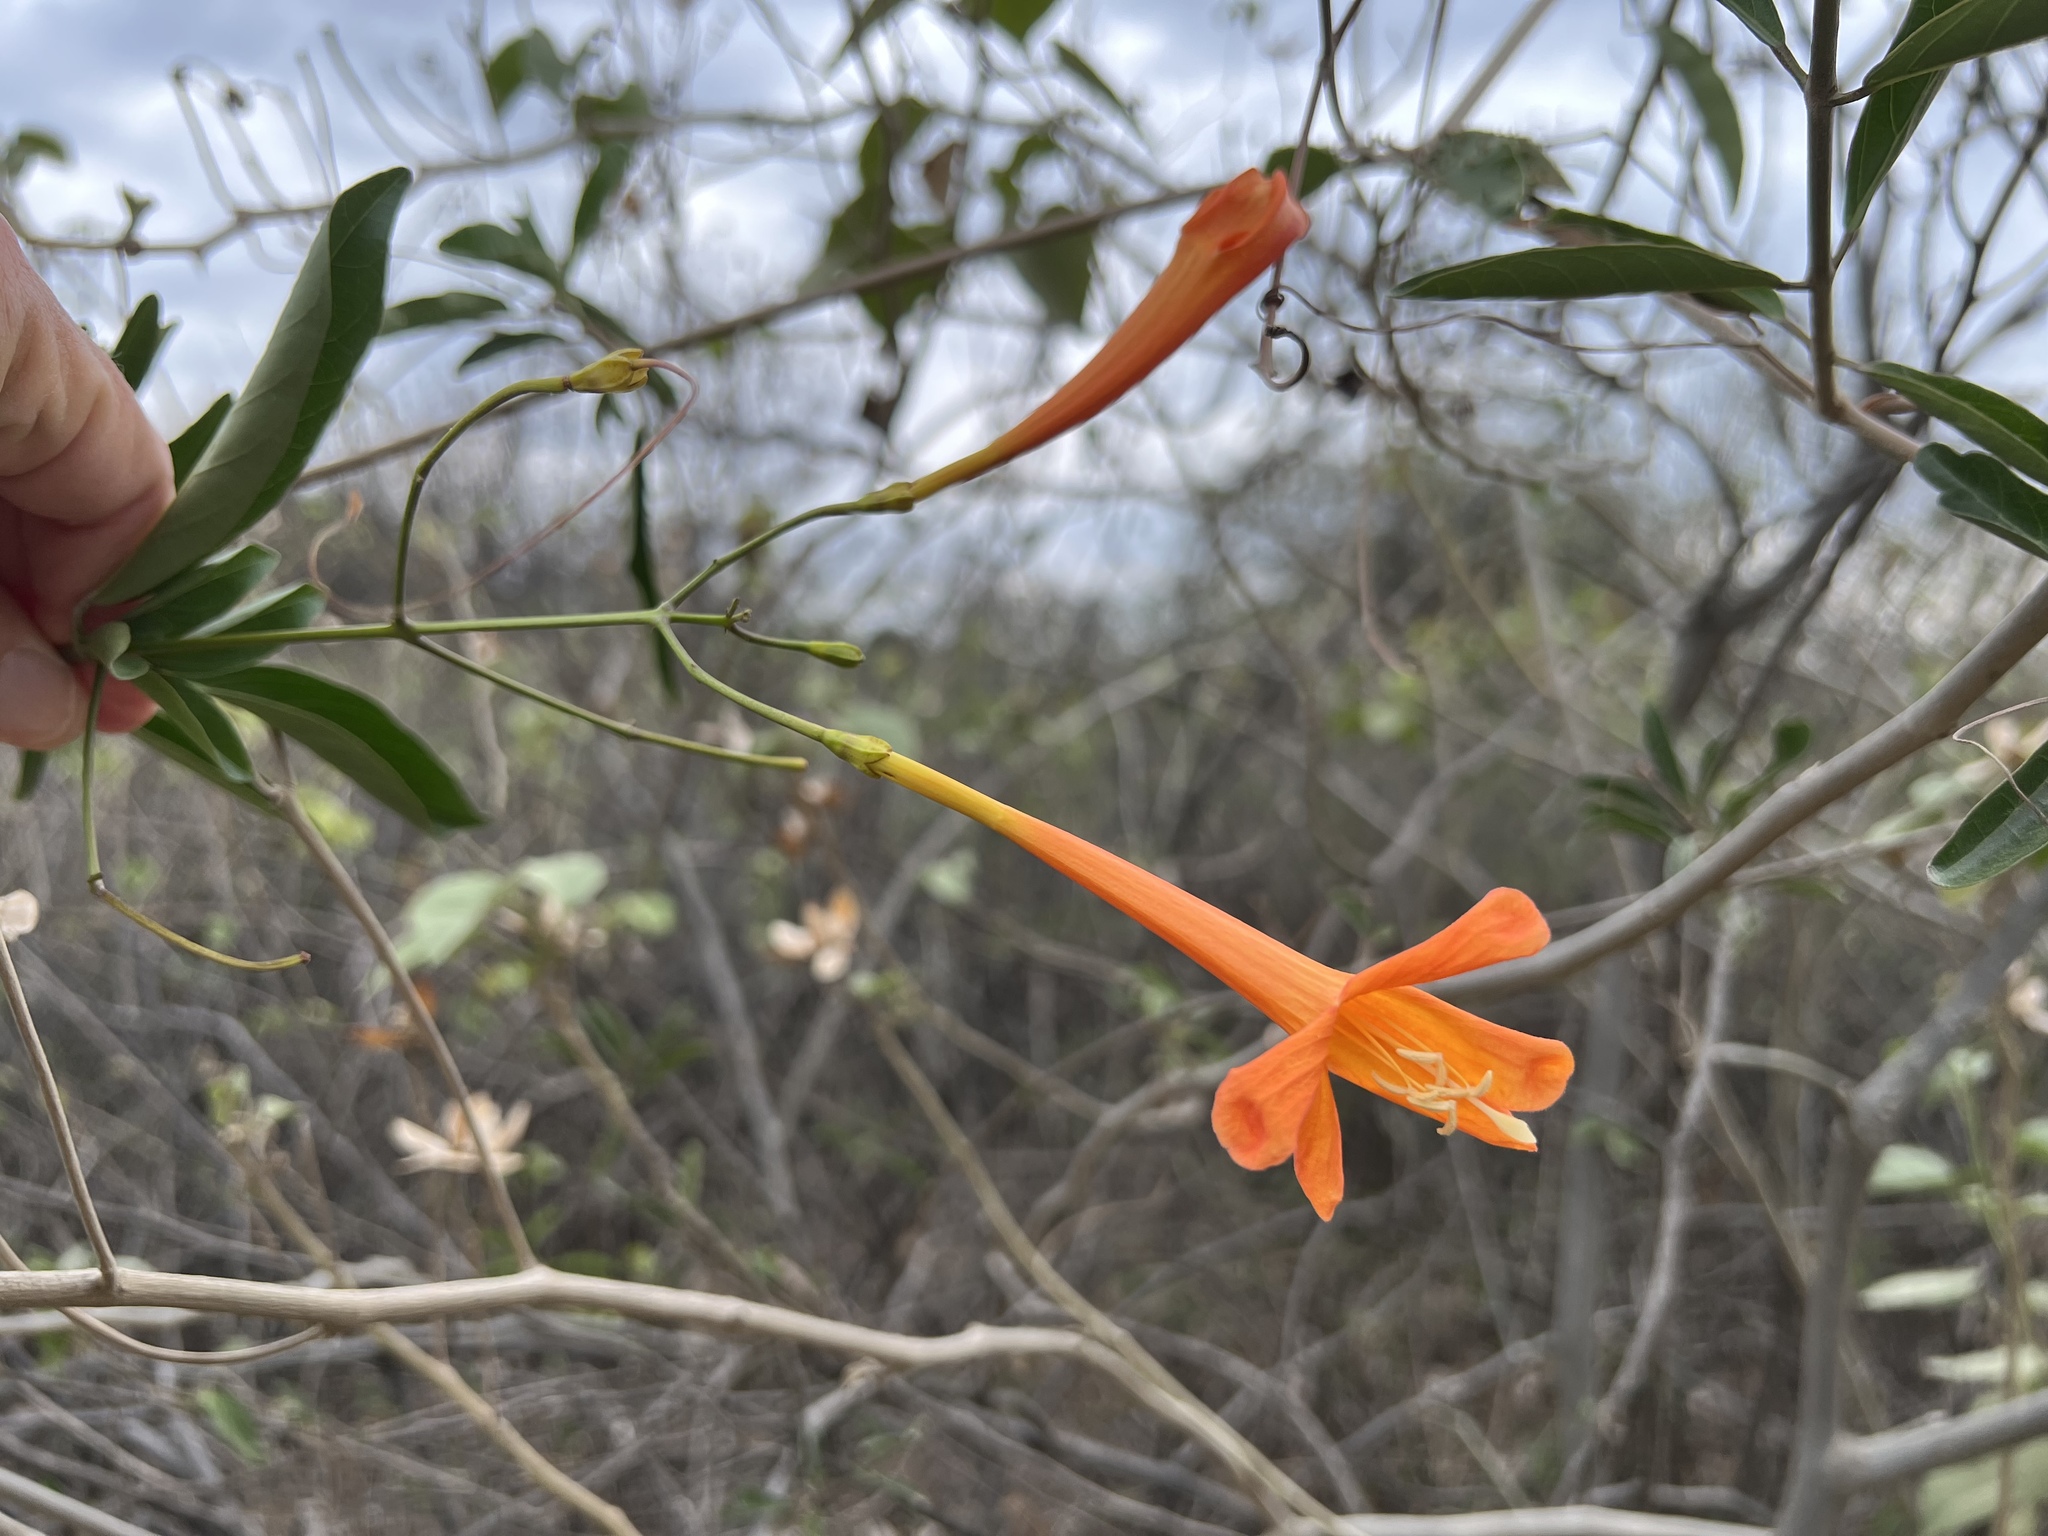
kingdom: Plantae
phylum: Tracheophyta
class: Magnoliopsida
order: Lamiales
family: Bignoniaceae
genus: Bignonia
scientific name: Bignonia longiflora
